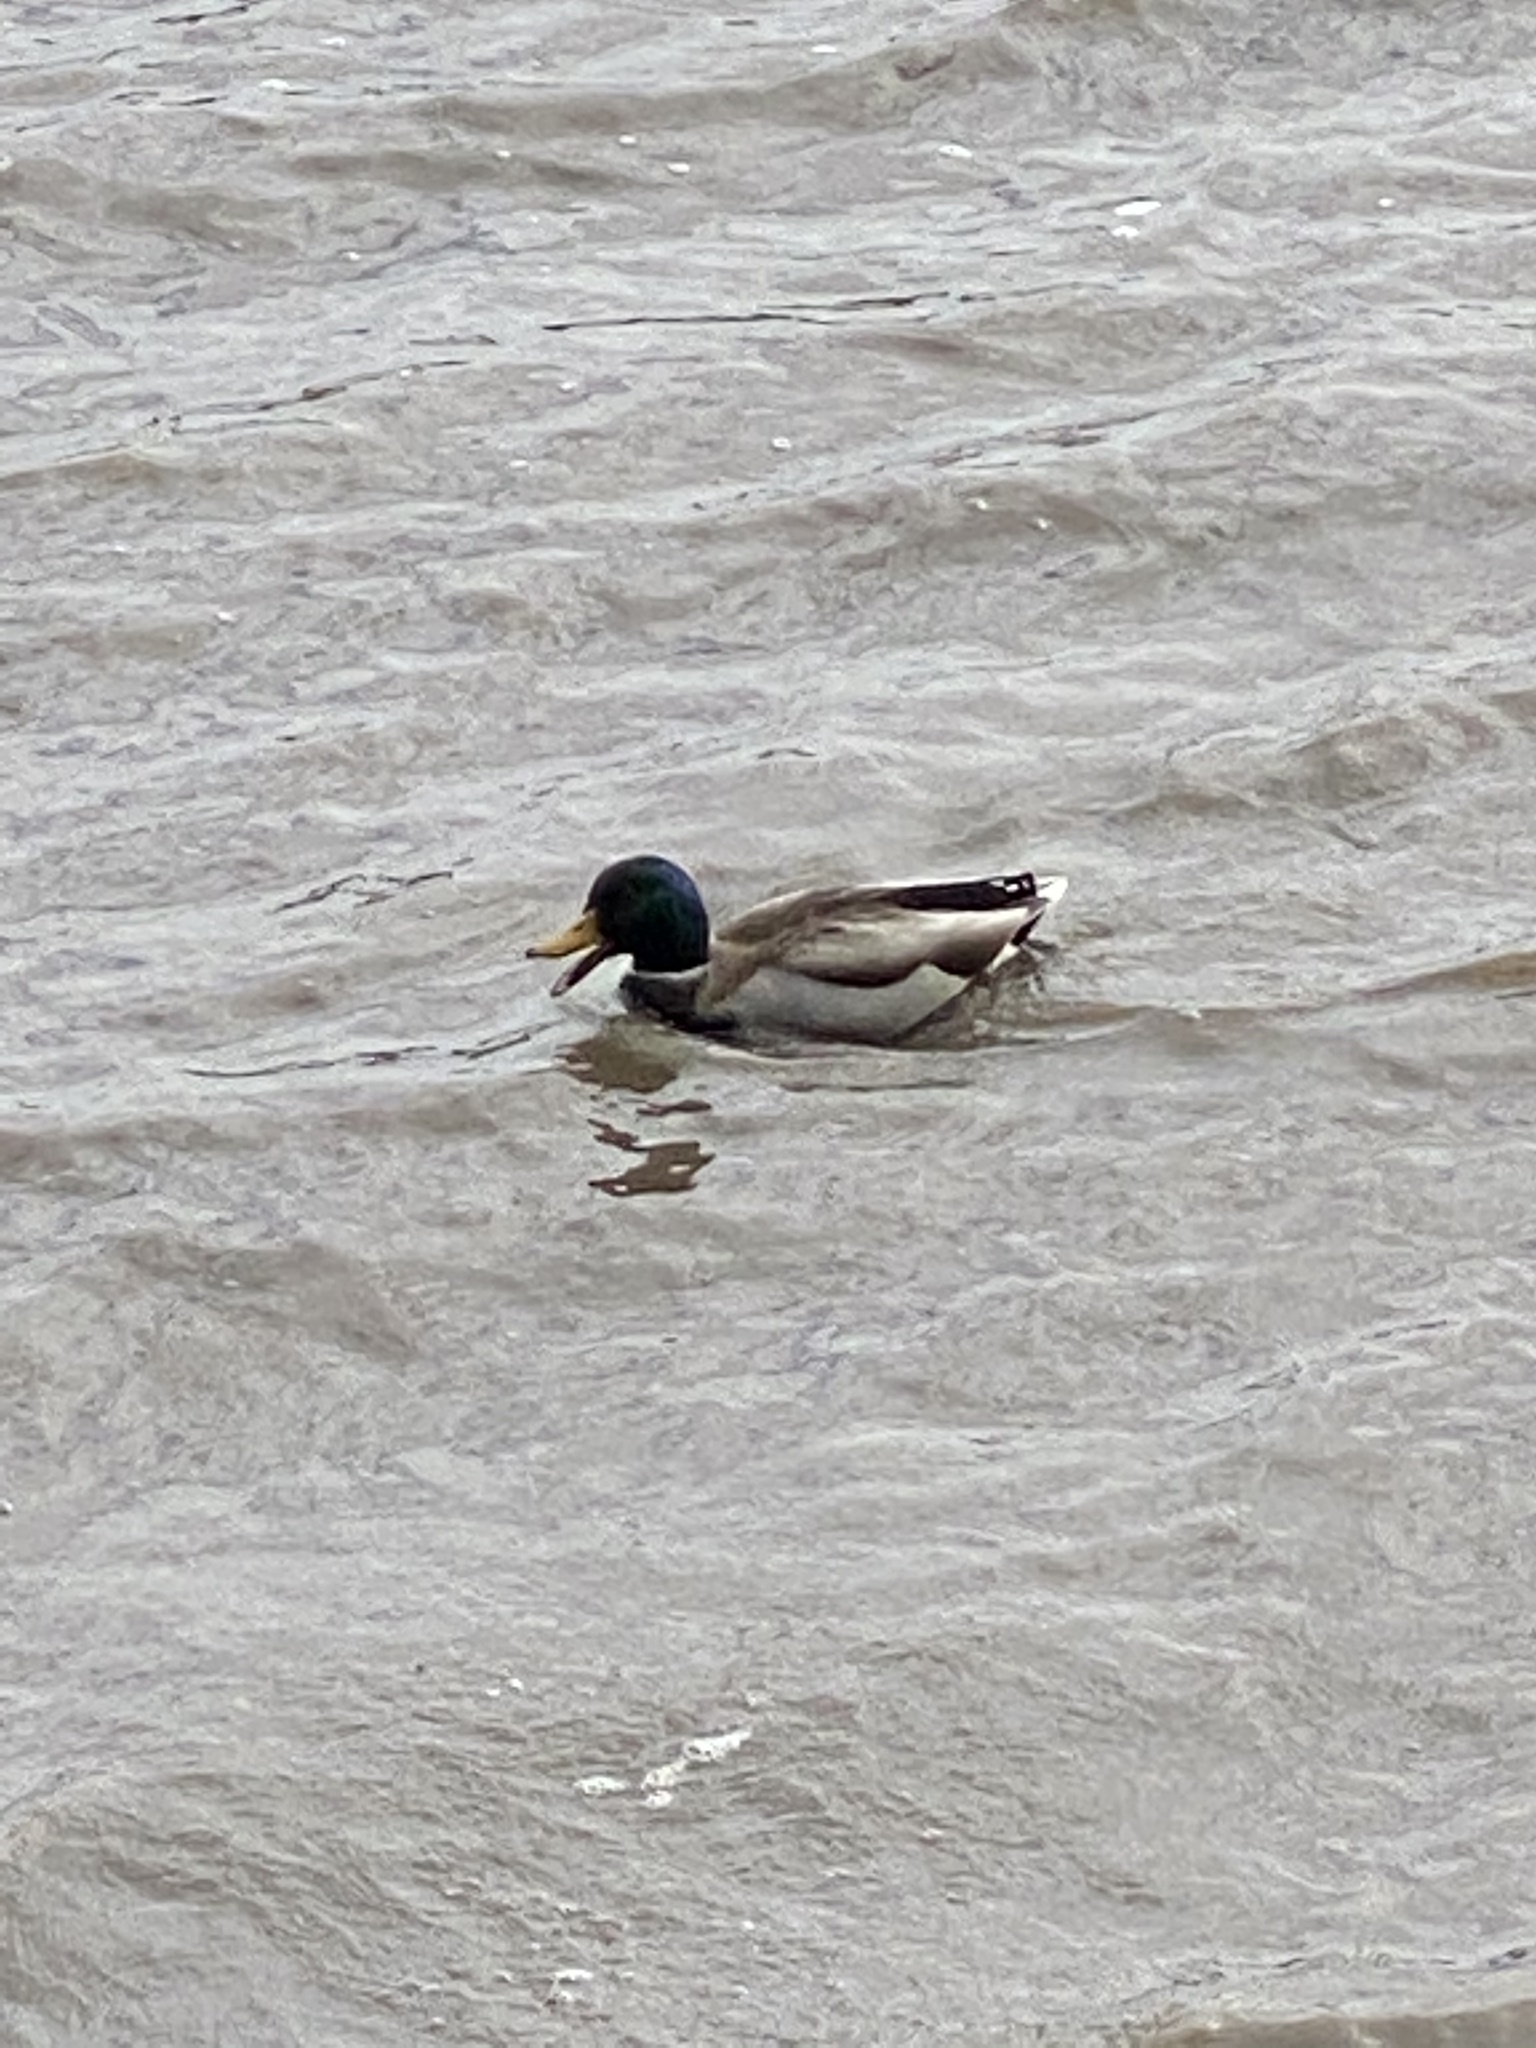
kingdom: Animalia
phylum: Chordata
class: Aves
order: Anseriformes
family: Anatidae
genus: Anas
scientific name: Anas platyrhynchos
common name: Mallard
